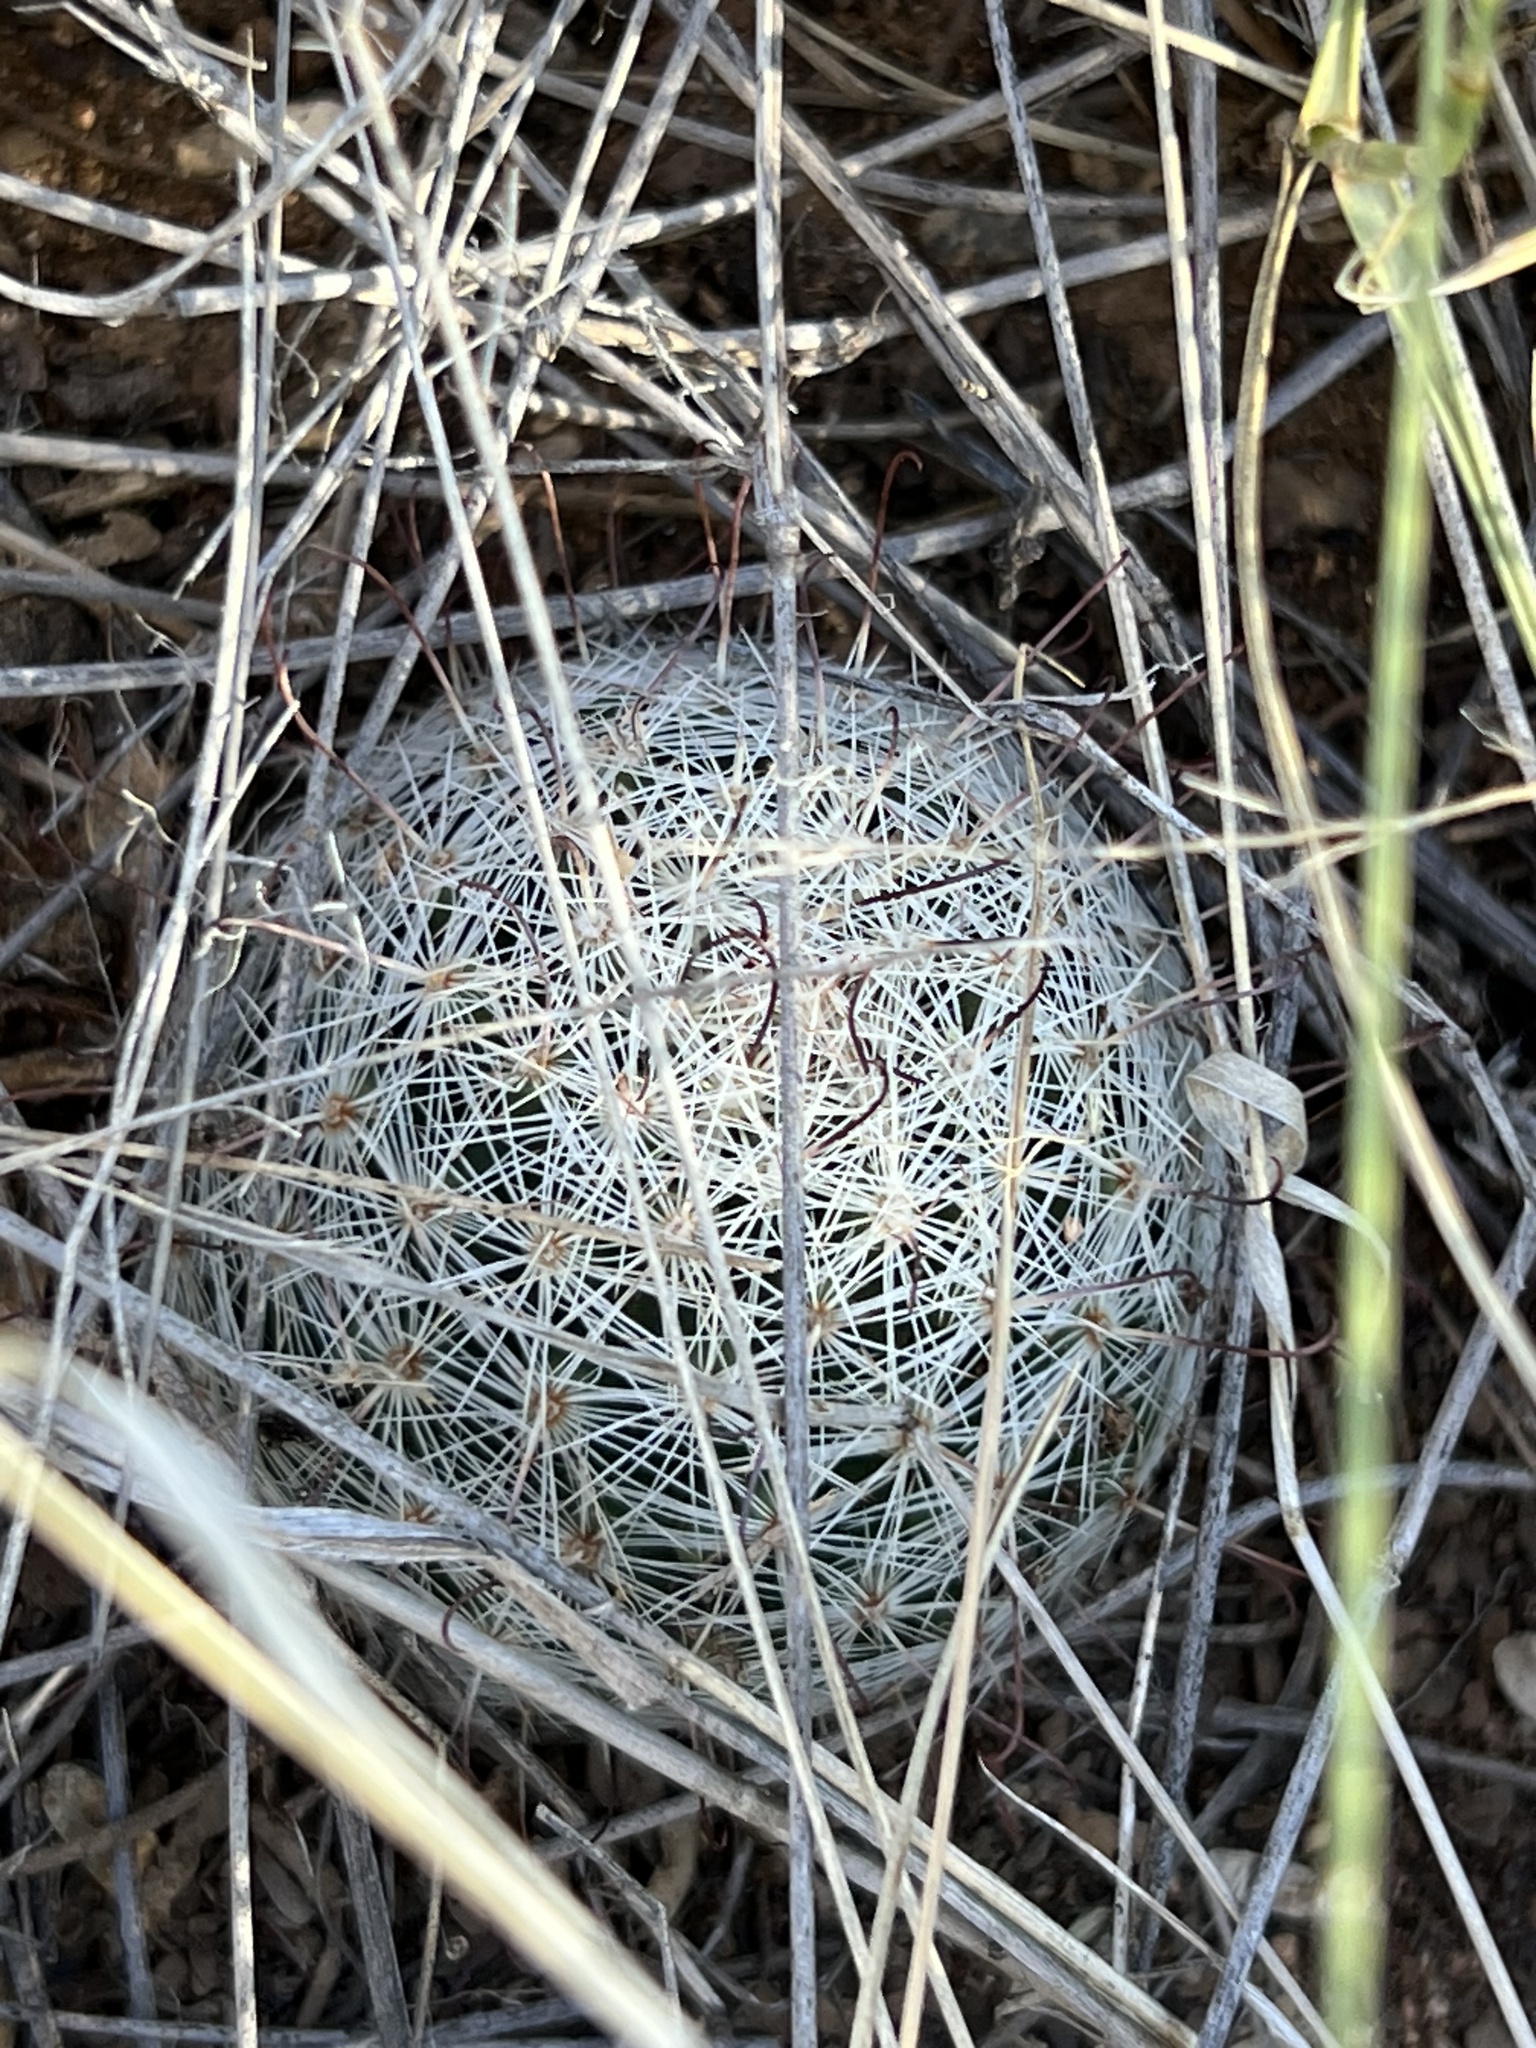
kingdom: Plantae
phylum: Tracheophyta
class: Magnoliopsida
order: Caryophyllales
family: Cactaceae
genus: Cochemiea
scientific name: Cochemiea grahamii
